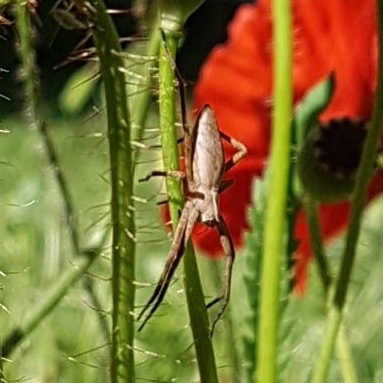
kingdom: Animalia
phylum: Arthropoda
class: Arachnida
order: Araneae
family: Pisauridae
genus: Pisaura
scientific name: Pisaura
